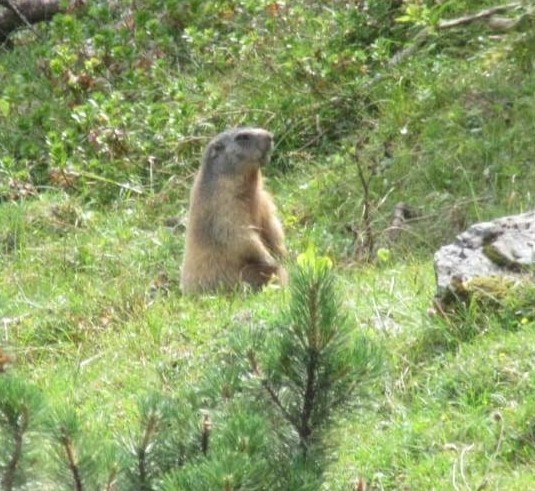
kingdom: Animalia
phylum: Chordata
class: Mammalia
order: Rodentia
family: Sciuridae
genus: Marmota
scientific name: Marmota marmota
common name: Alpine marmot
